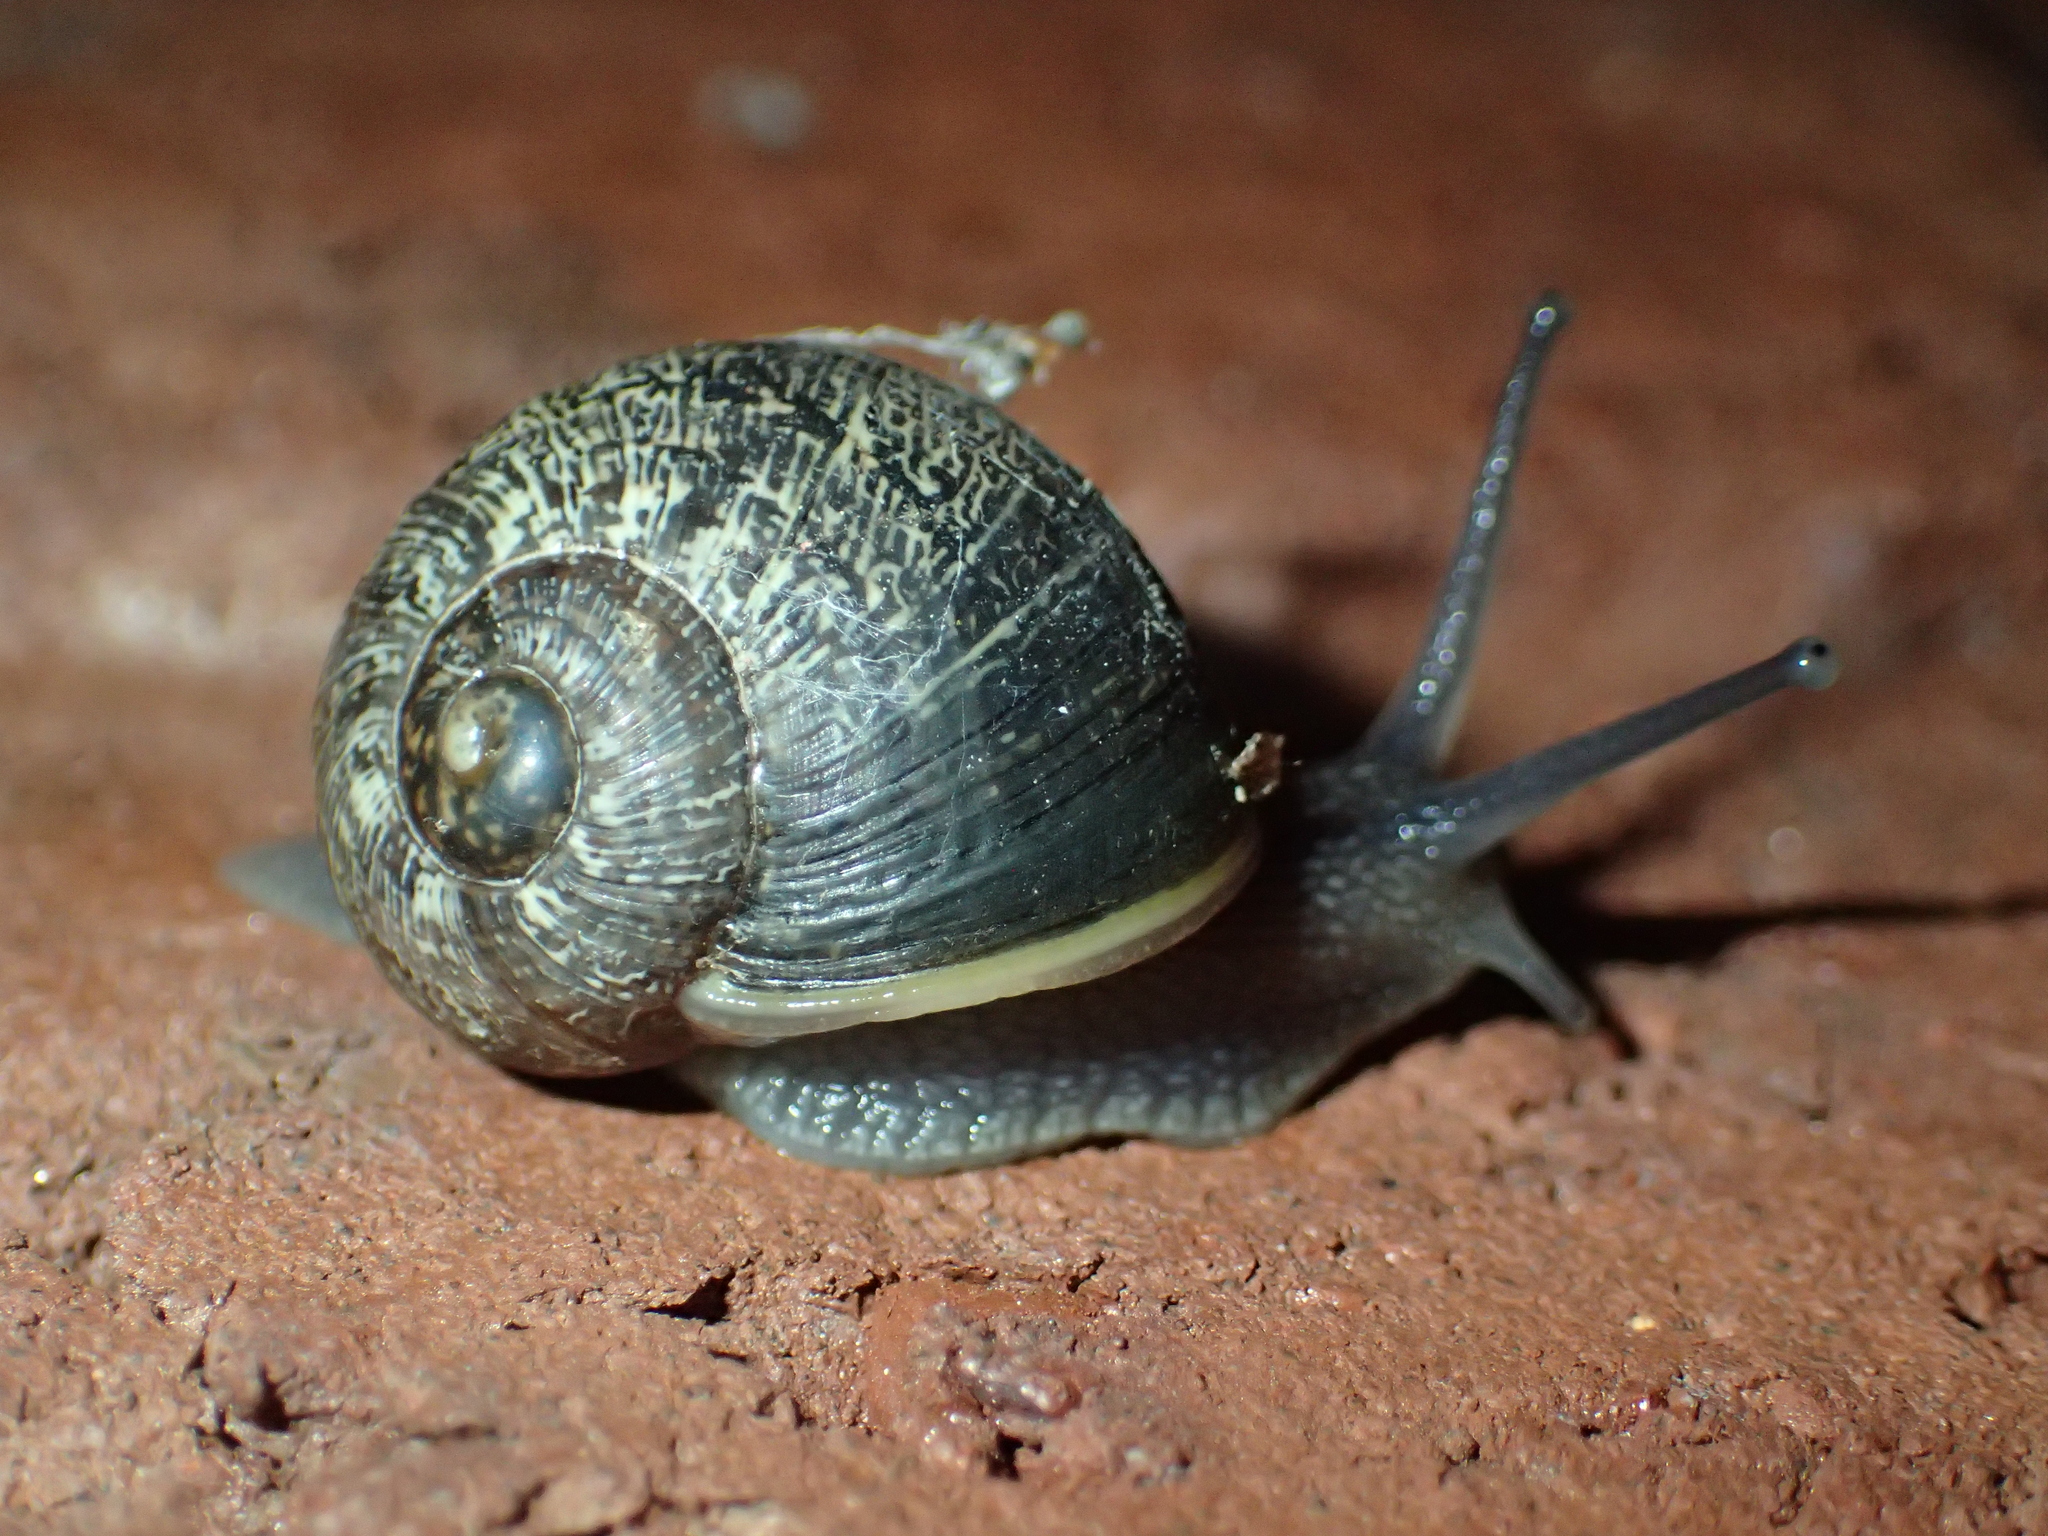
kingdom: Animalia
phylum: Mollusca
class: Gastropoda
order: Stylommatophora
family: Helicidae
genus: Cornu
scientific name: Cornu aspersum
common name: Brown garden snail
